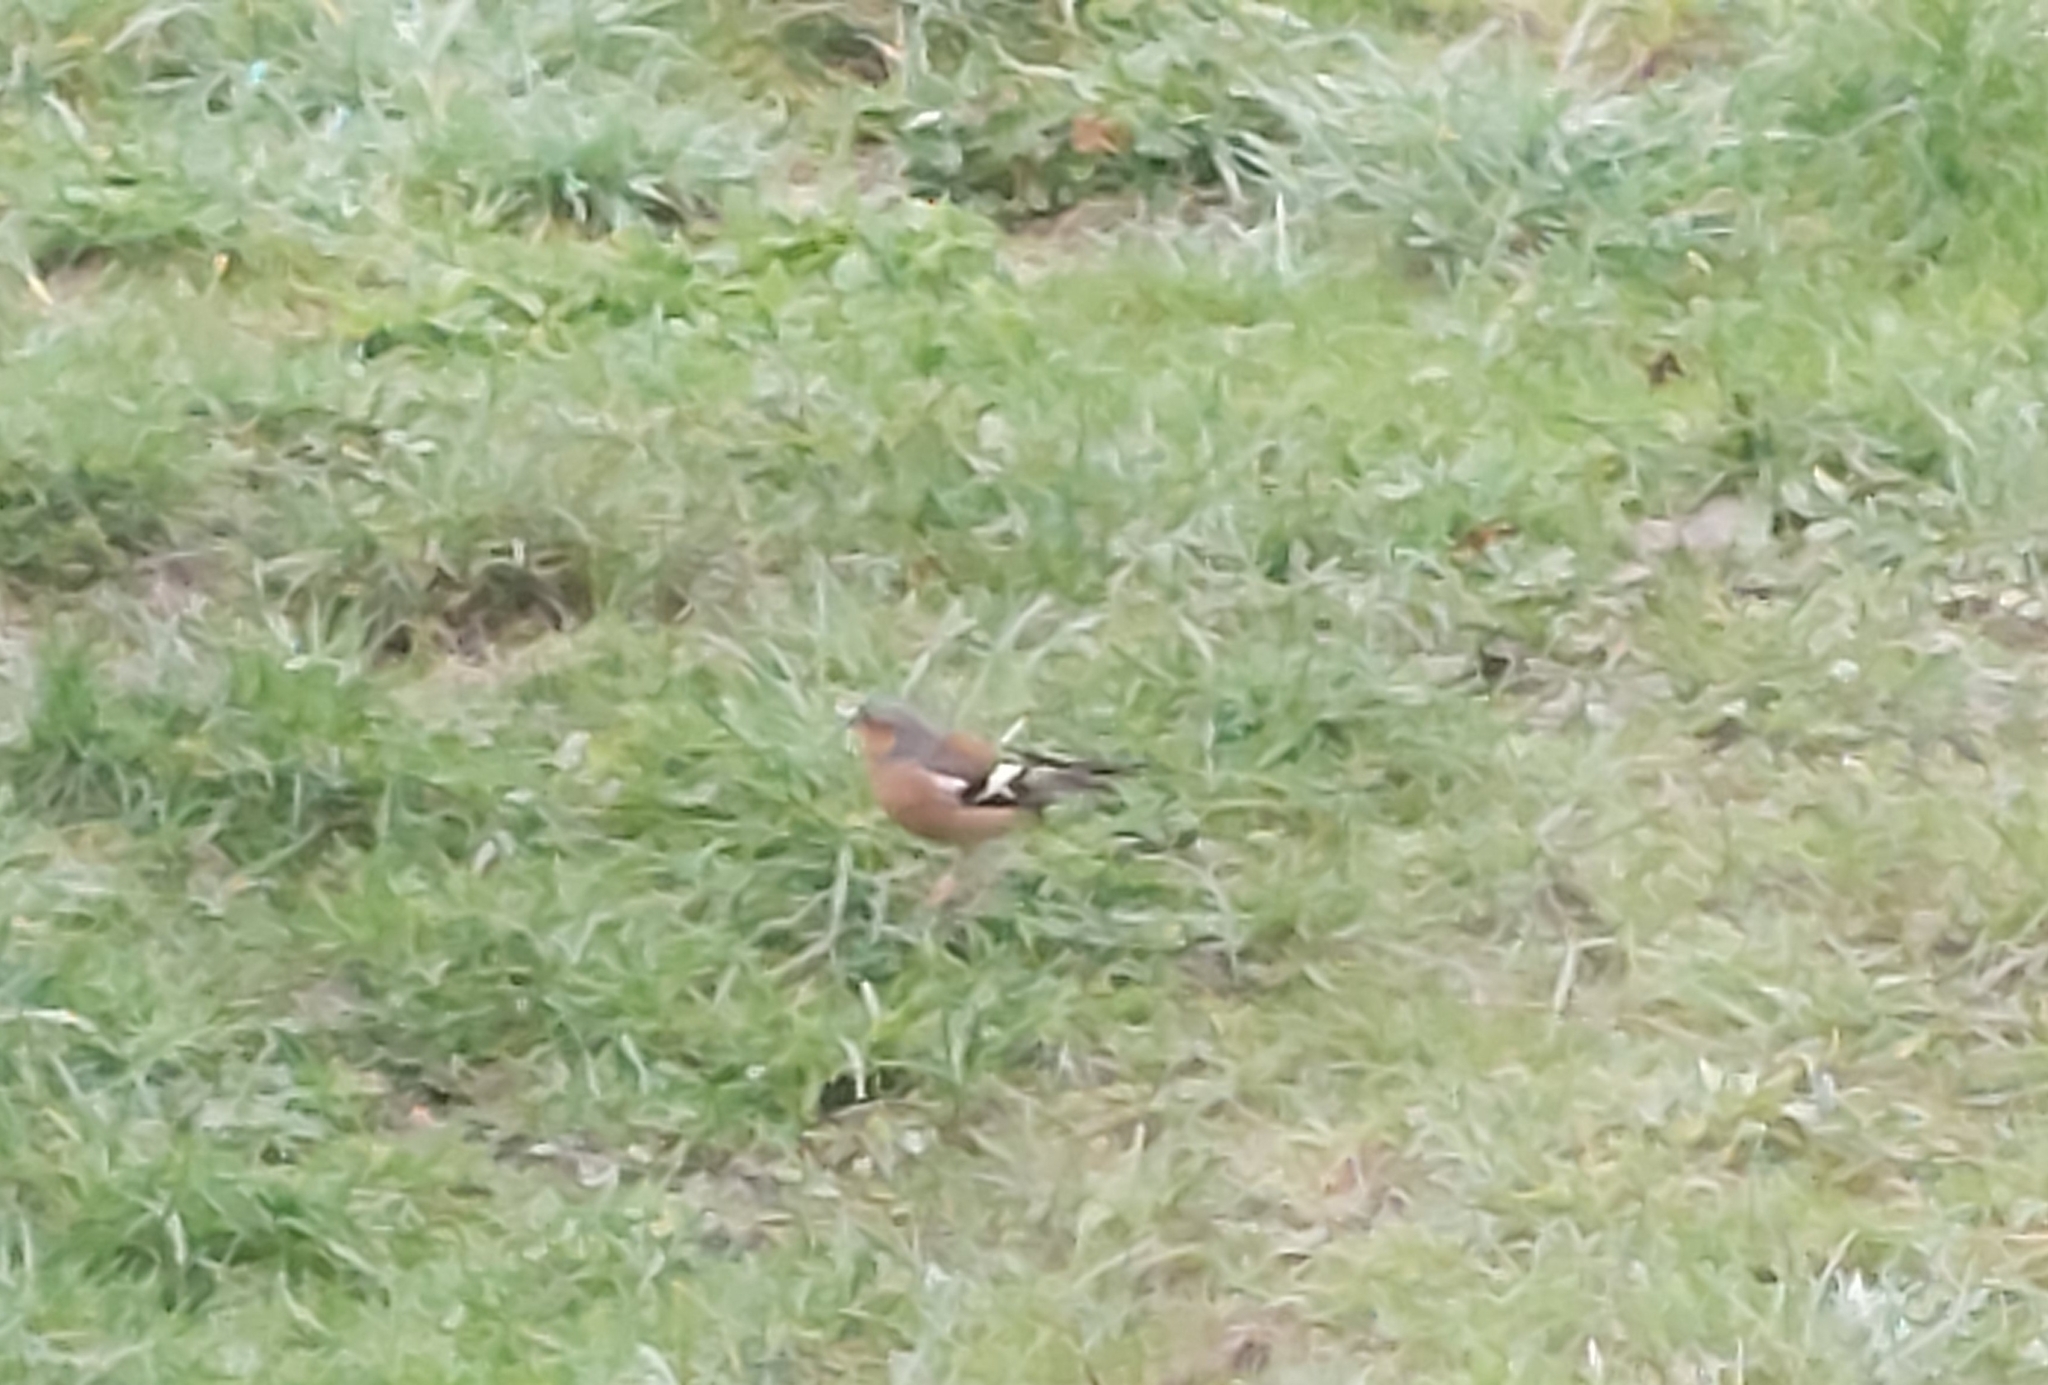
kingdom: Animalia
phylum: Chordata
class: Aves
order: Passeriformes
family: Fringillidae
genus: Fringilla
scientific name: Fringilla coelebs
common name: Common chaffinch
